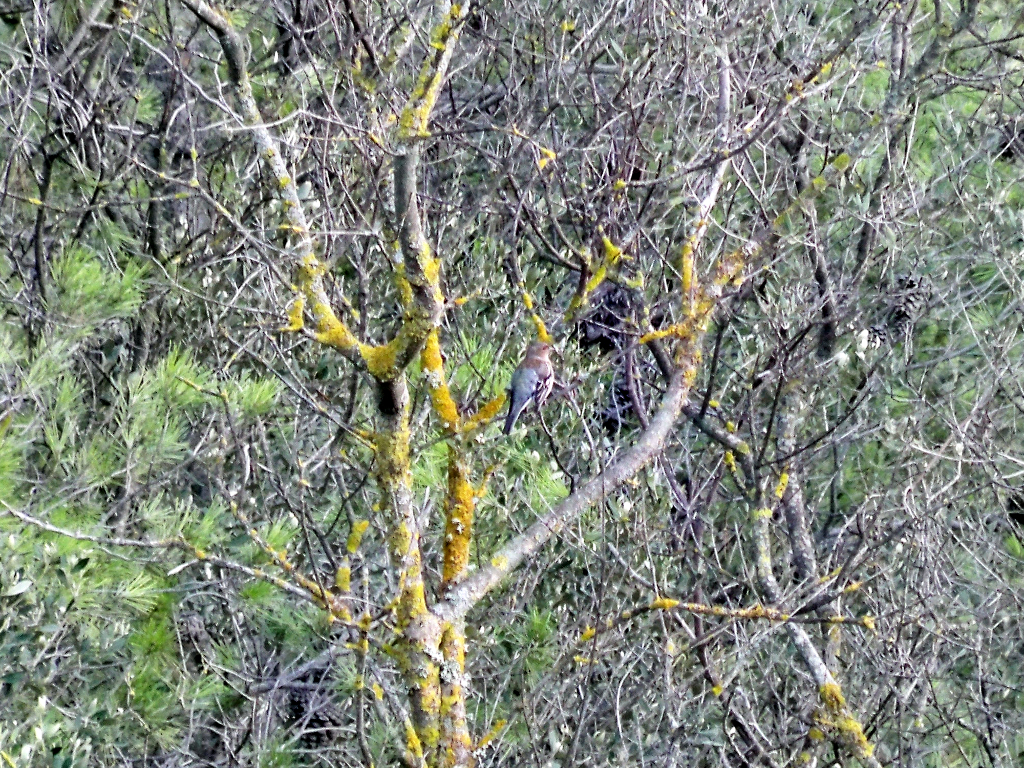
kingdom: Animalia
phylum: Chordata
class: Aves
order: Passeriformes
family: Fringillidae
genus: Fringilla
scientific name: Fringilla coelebs
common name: Common chaffinch
